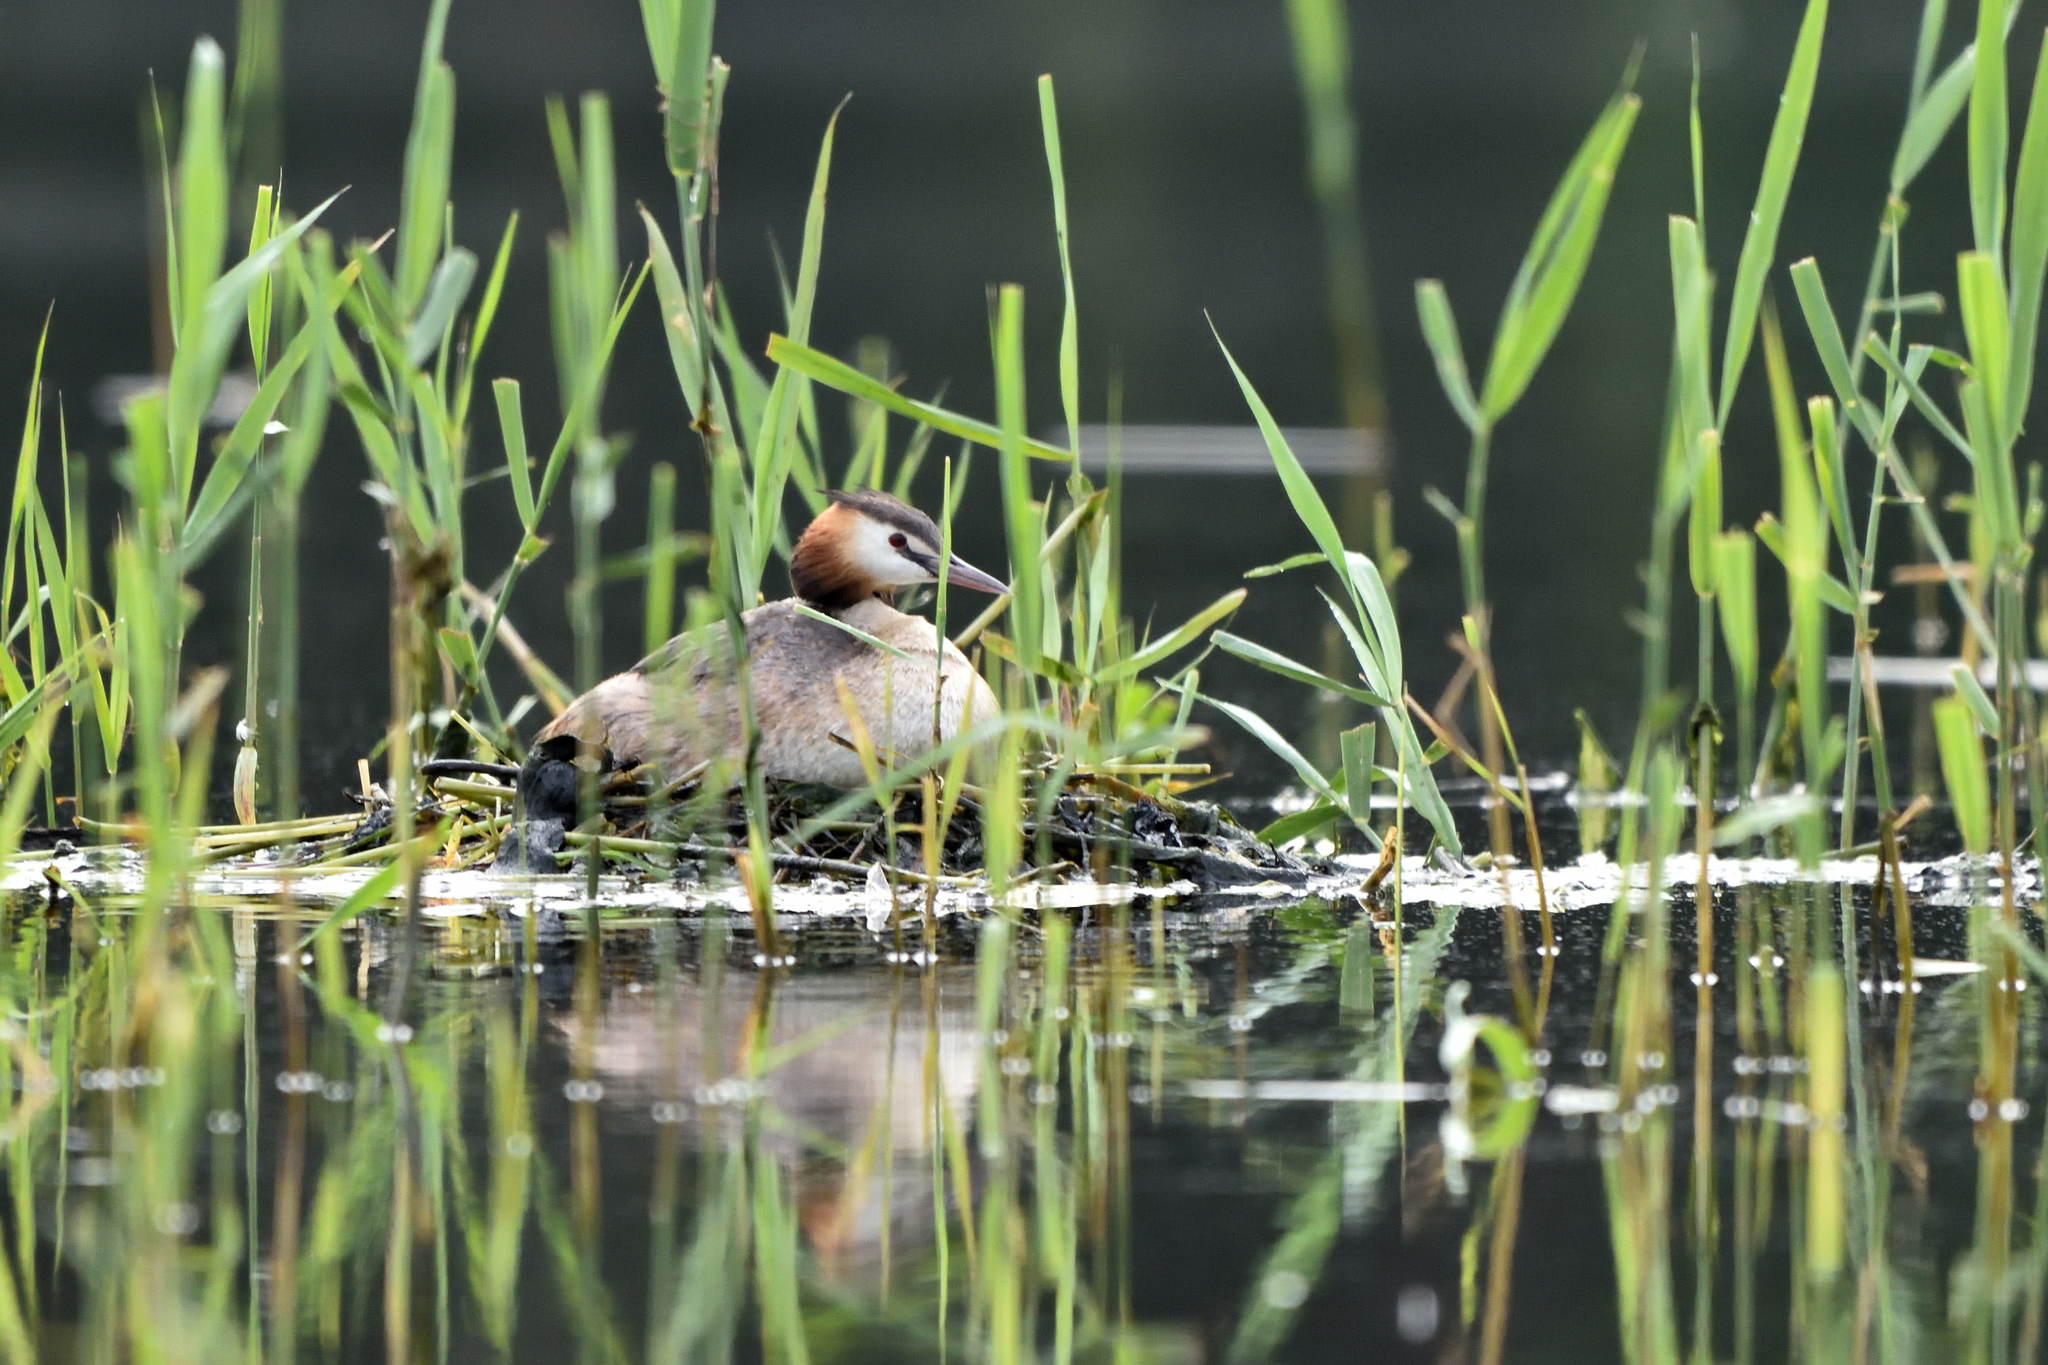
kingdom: Animalia
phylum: Chordata
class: Aves
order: Podicipediformes
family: Podicipedidae
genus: Podiceps
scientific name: Podiceps cristatus
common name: Great crested grebe
